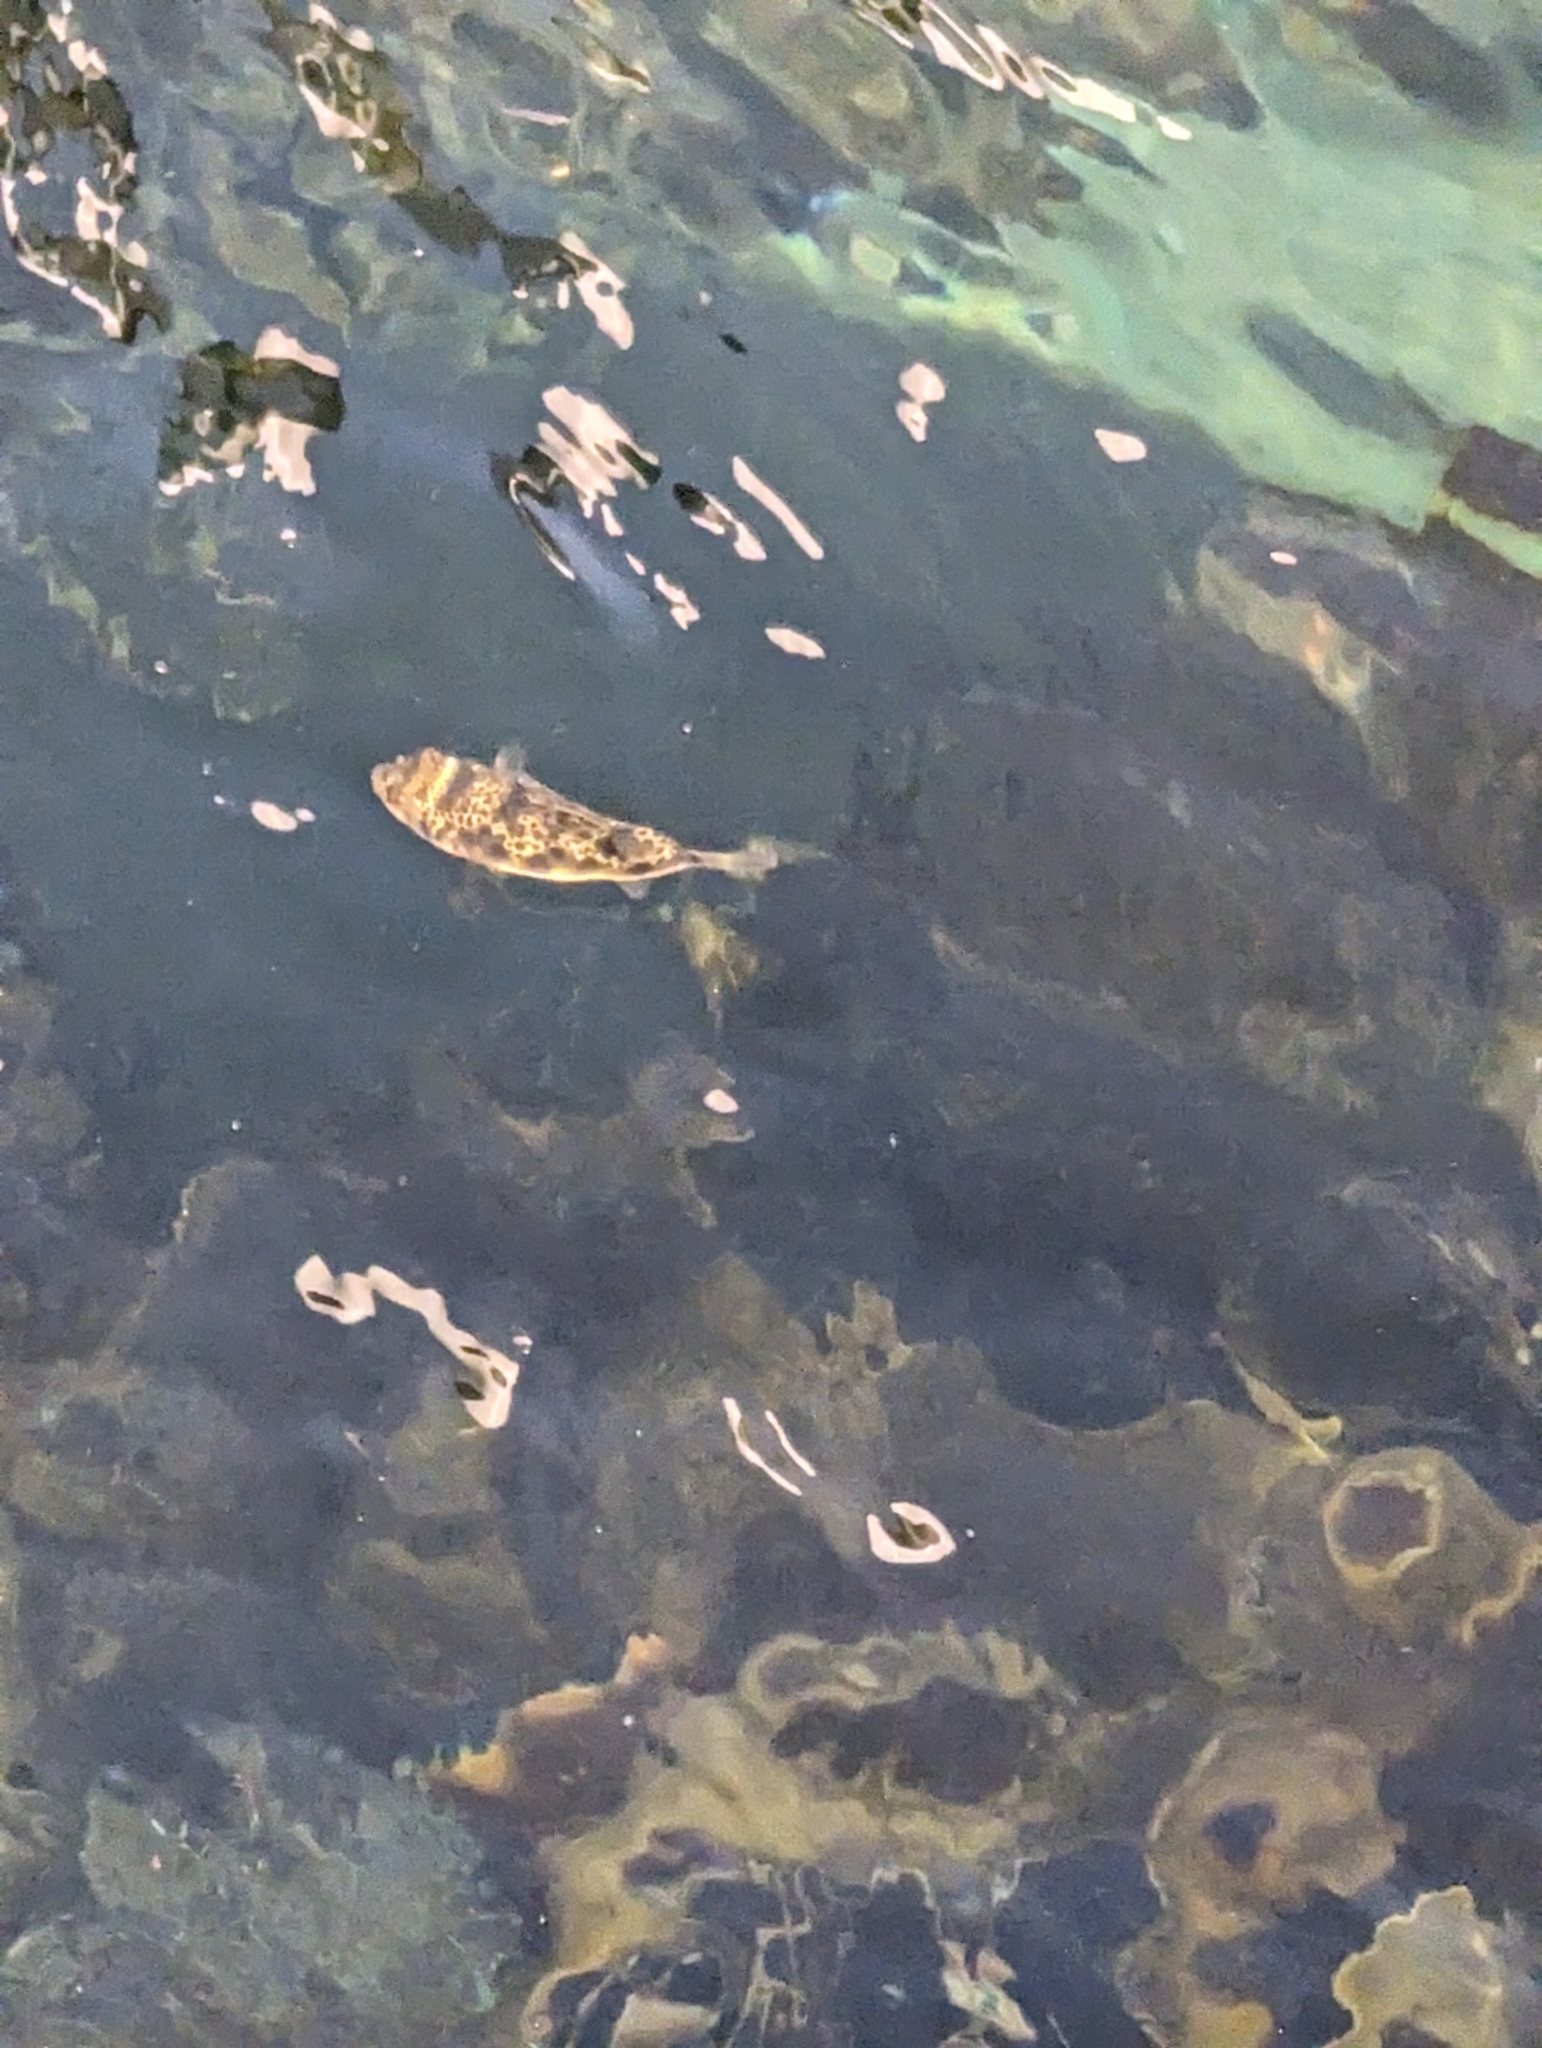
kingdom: Animalia
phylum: Chordata
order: Tetraodontiformes
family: Tetraodontidae
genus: Tetractenos
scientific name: Tetractenos glaber
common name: Smooth toadfish
